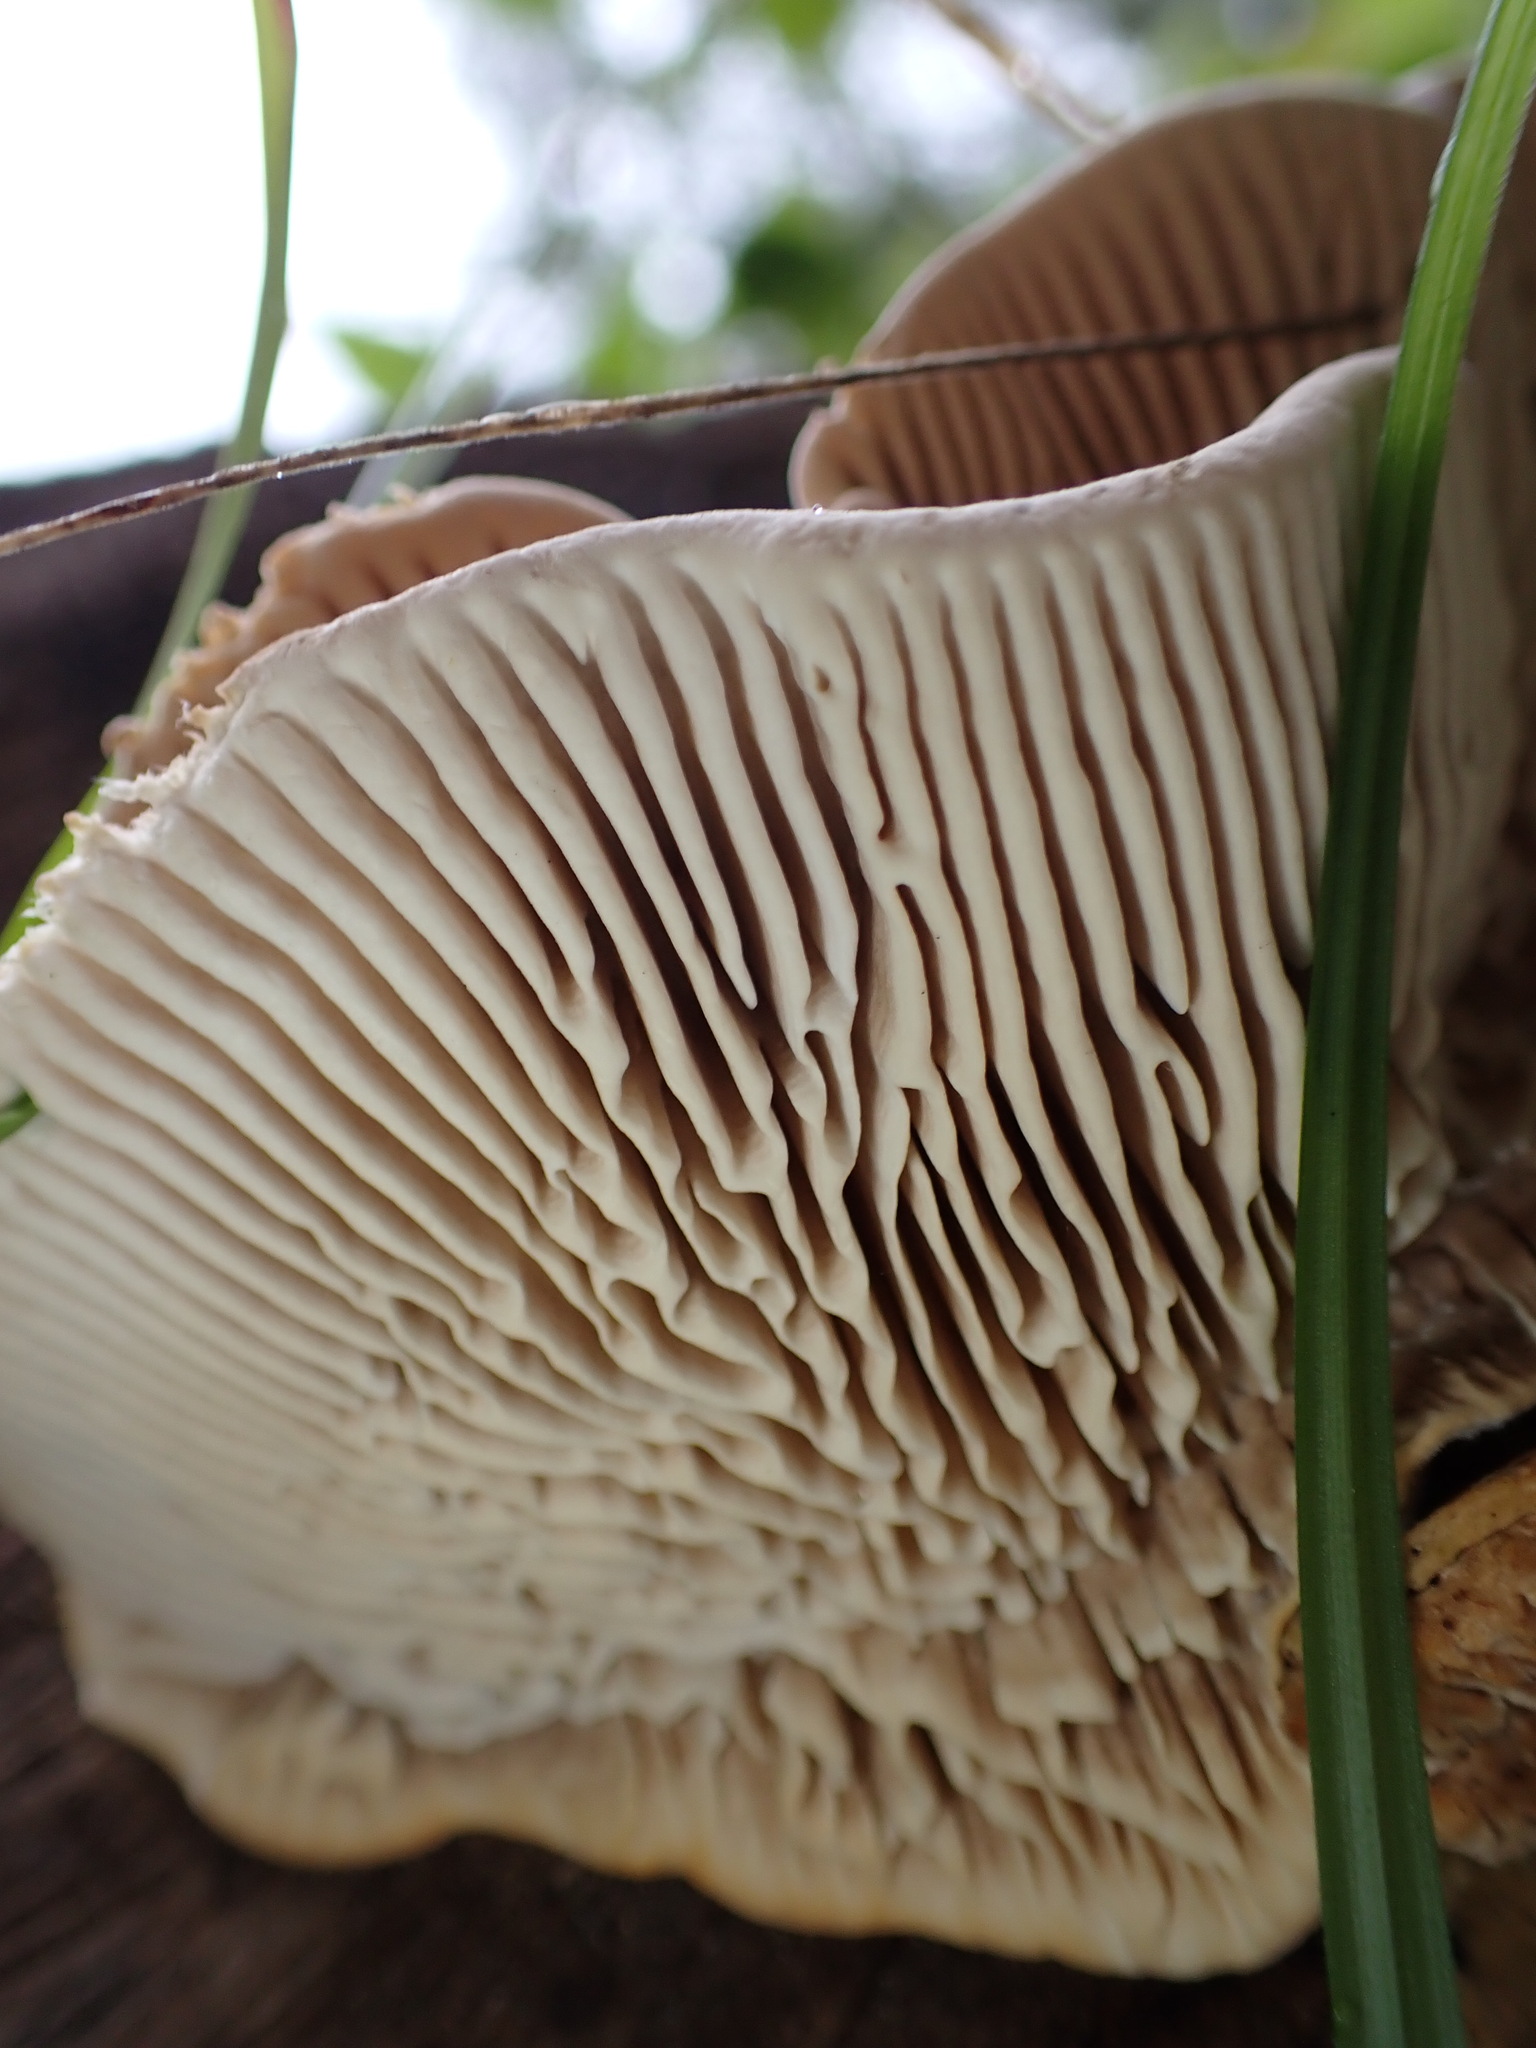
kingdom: Fungi
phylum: Basidiomycota
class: Agaricomycetes
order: Polyporales
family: Polyporaceae
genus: Lenzites
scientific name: Lenzites betulinus
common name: Birch mazegill
